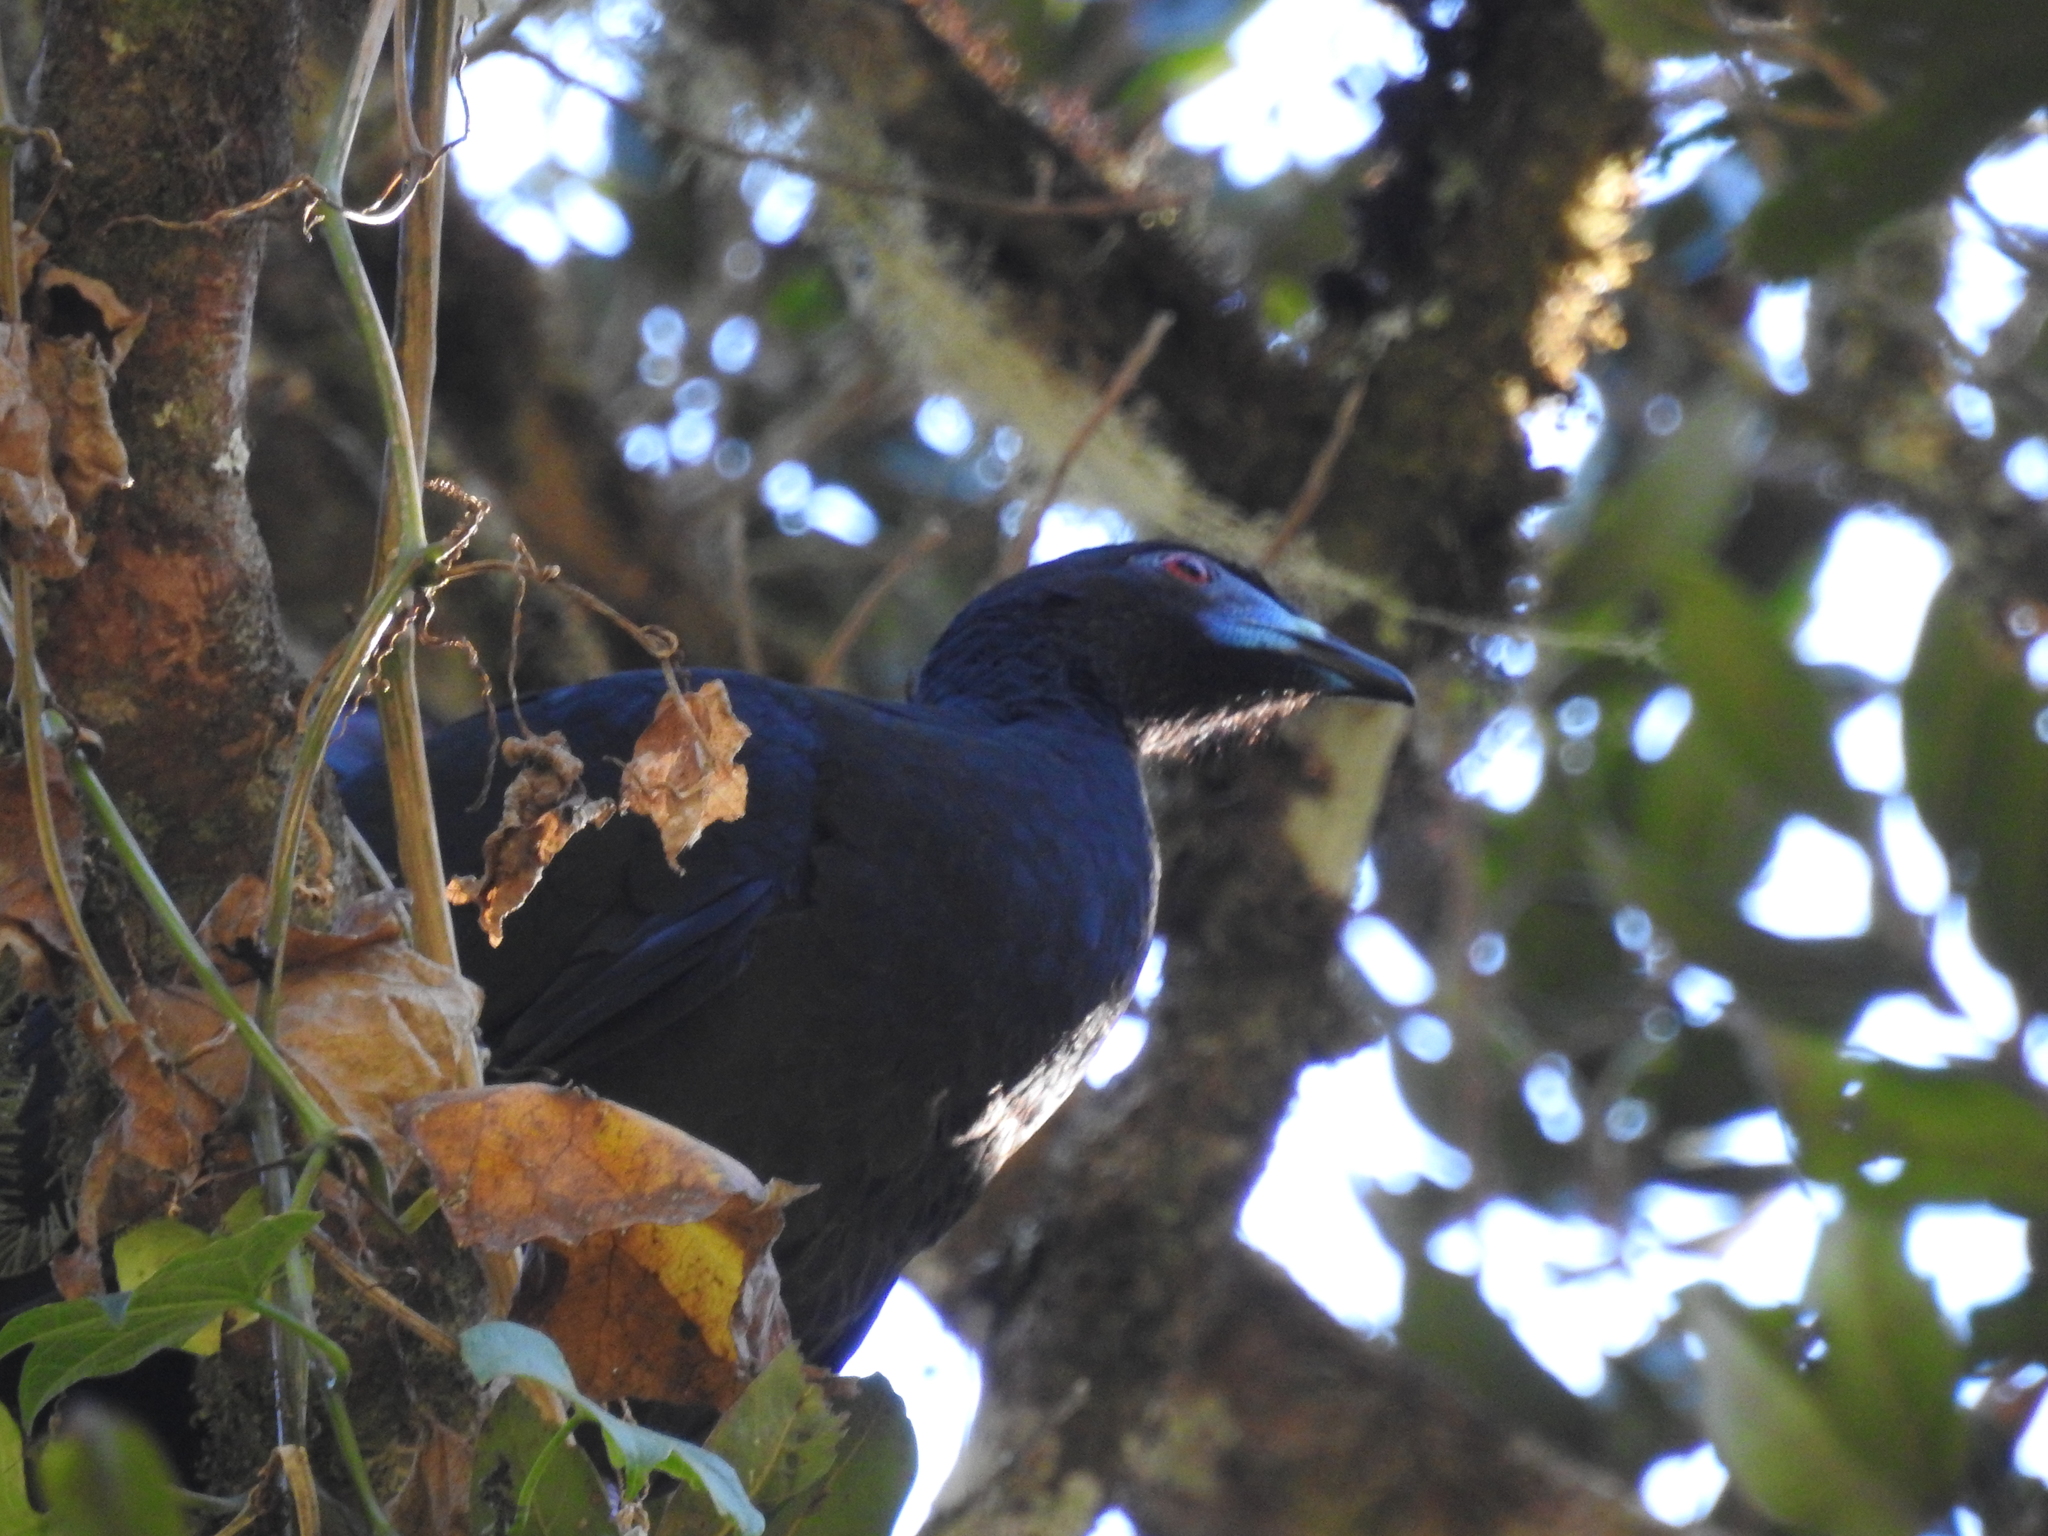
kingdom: Animalia
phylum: Chordata
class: Aves
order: Galliformes
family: Cracidae
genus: Chamaepetes
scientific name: Chamaepetes unicolor
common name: Black guan
